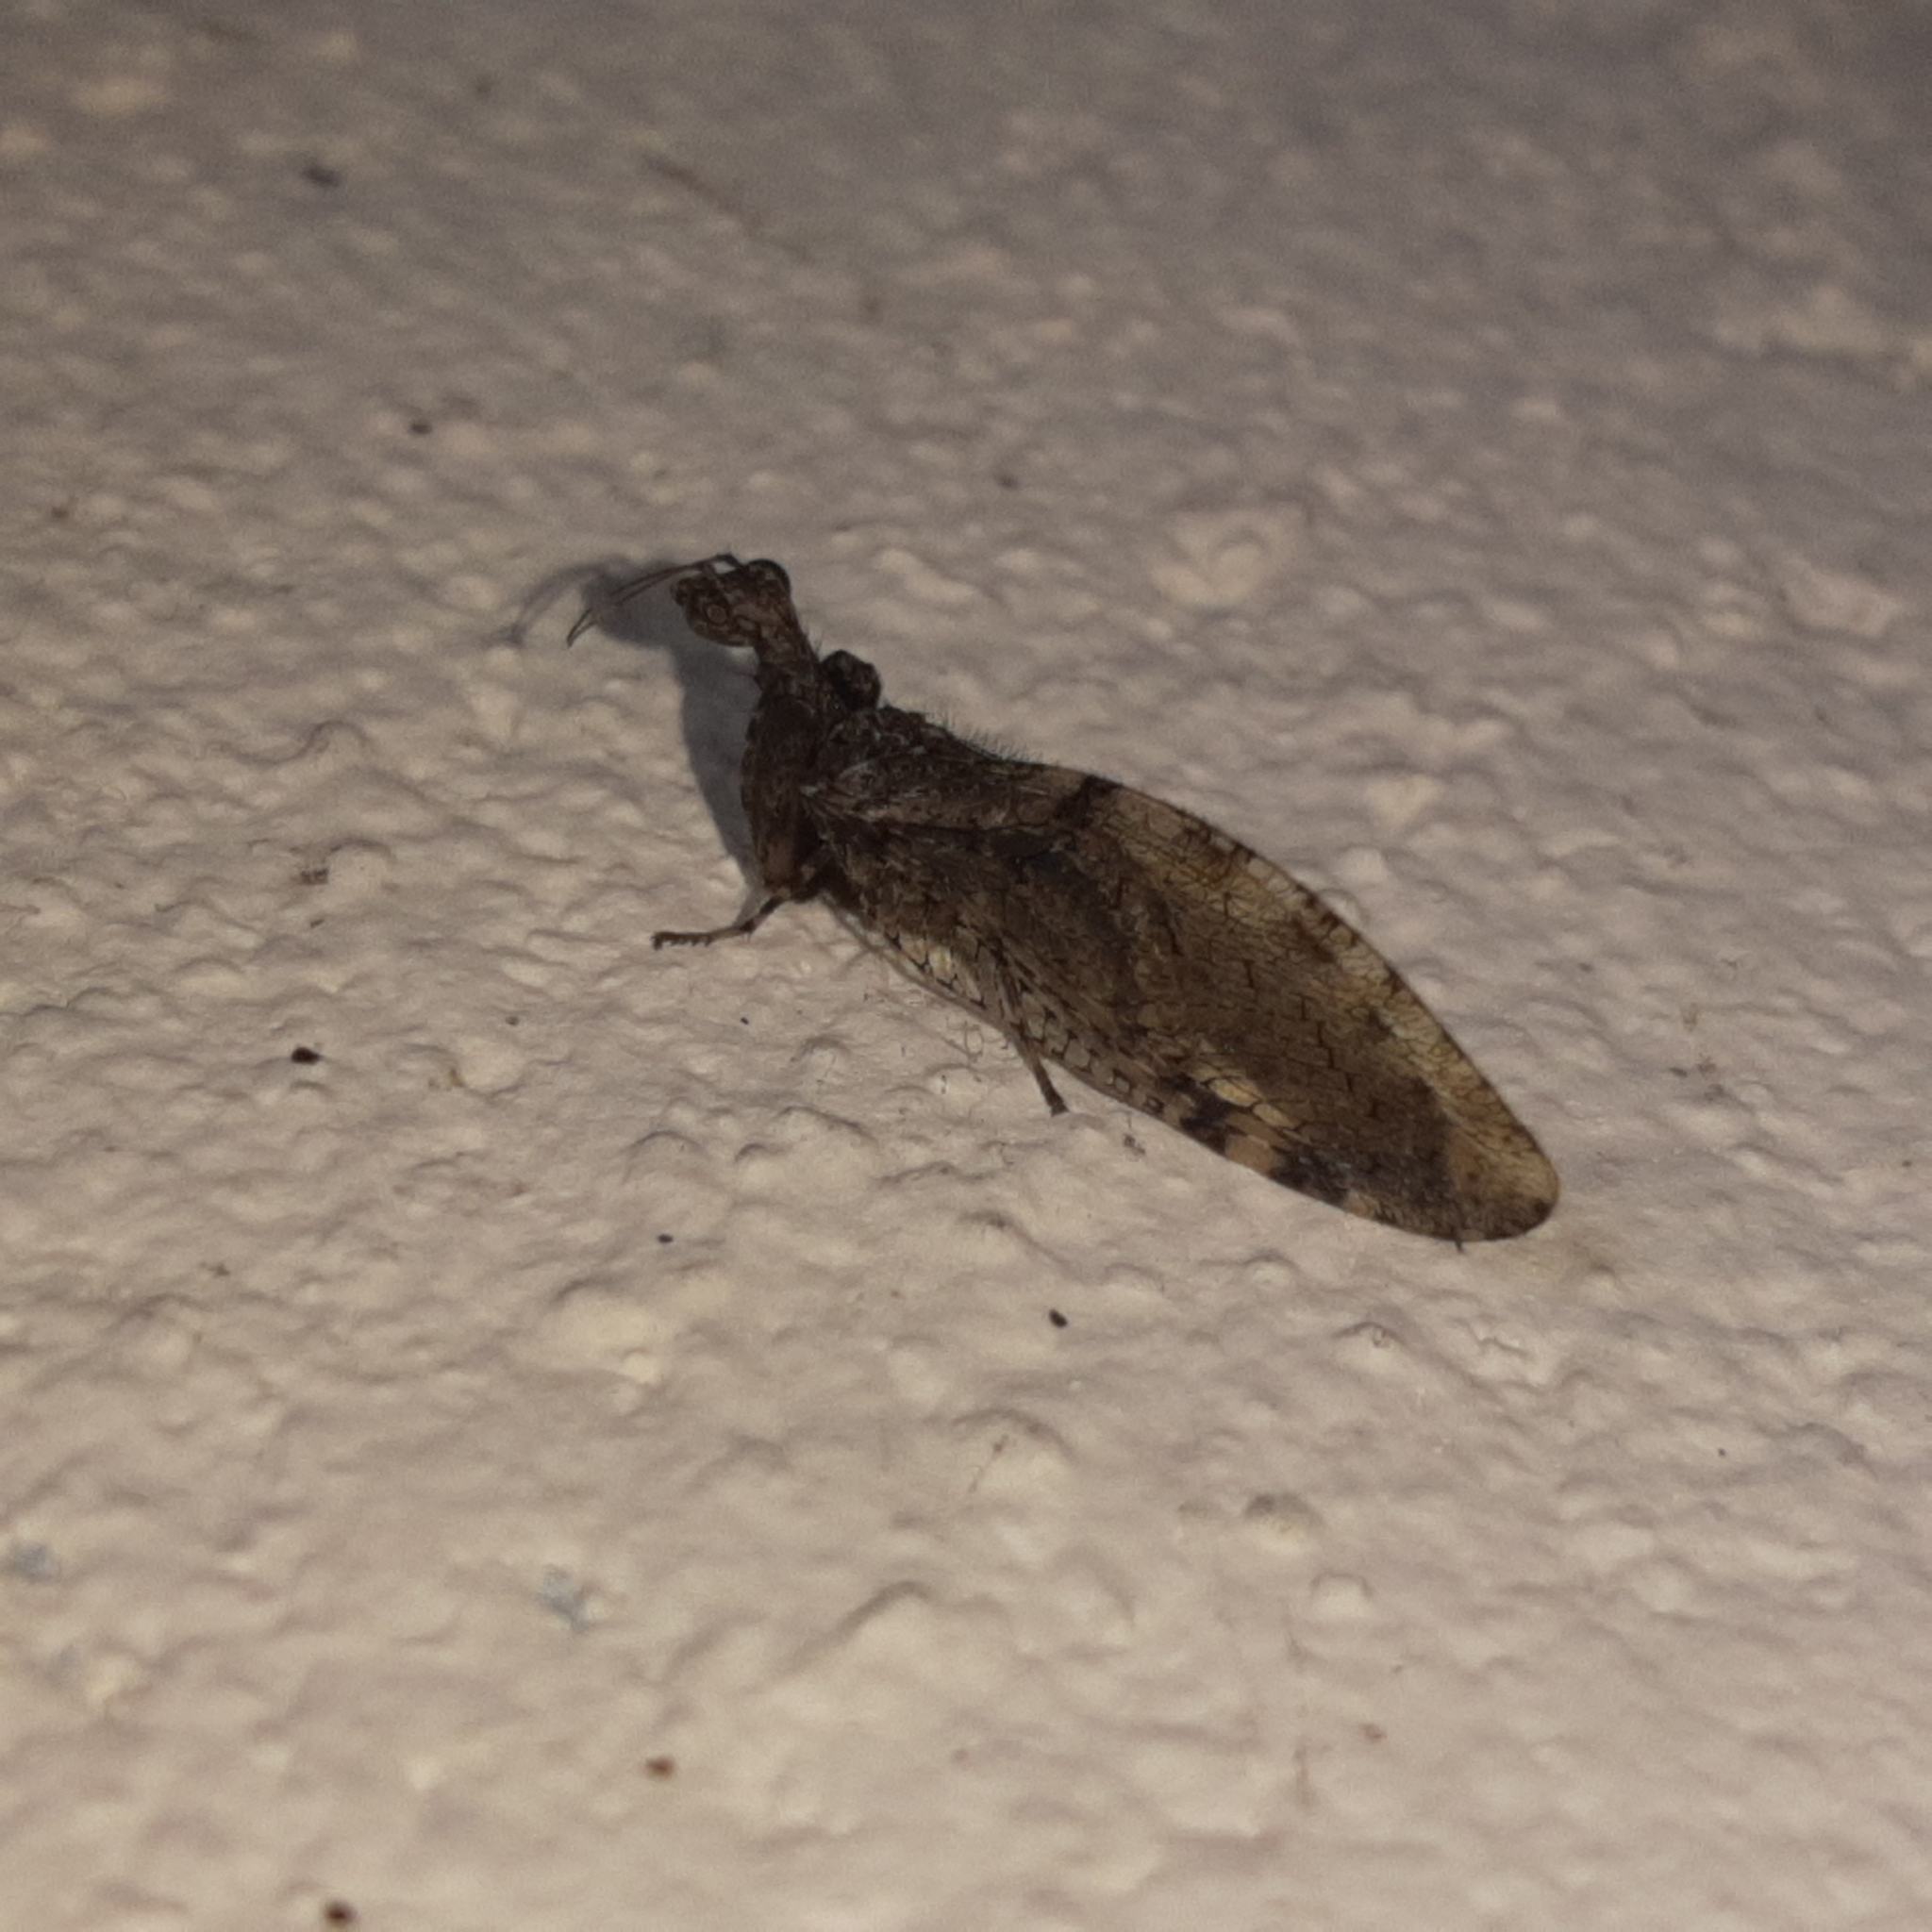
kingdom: Animalia
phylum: Arthropoda
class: Insecta
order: Neuroptera
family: Mantispidae
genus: Plega
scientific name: Plega hagenella
